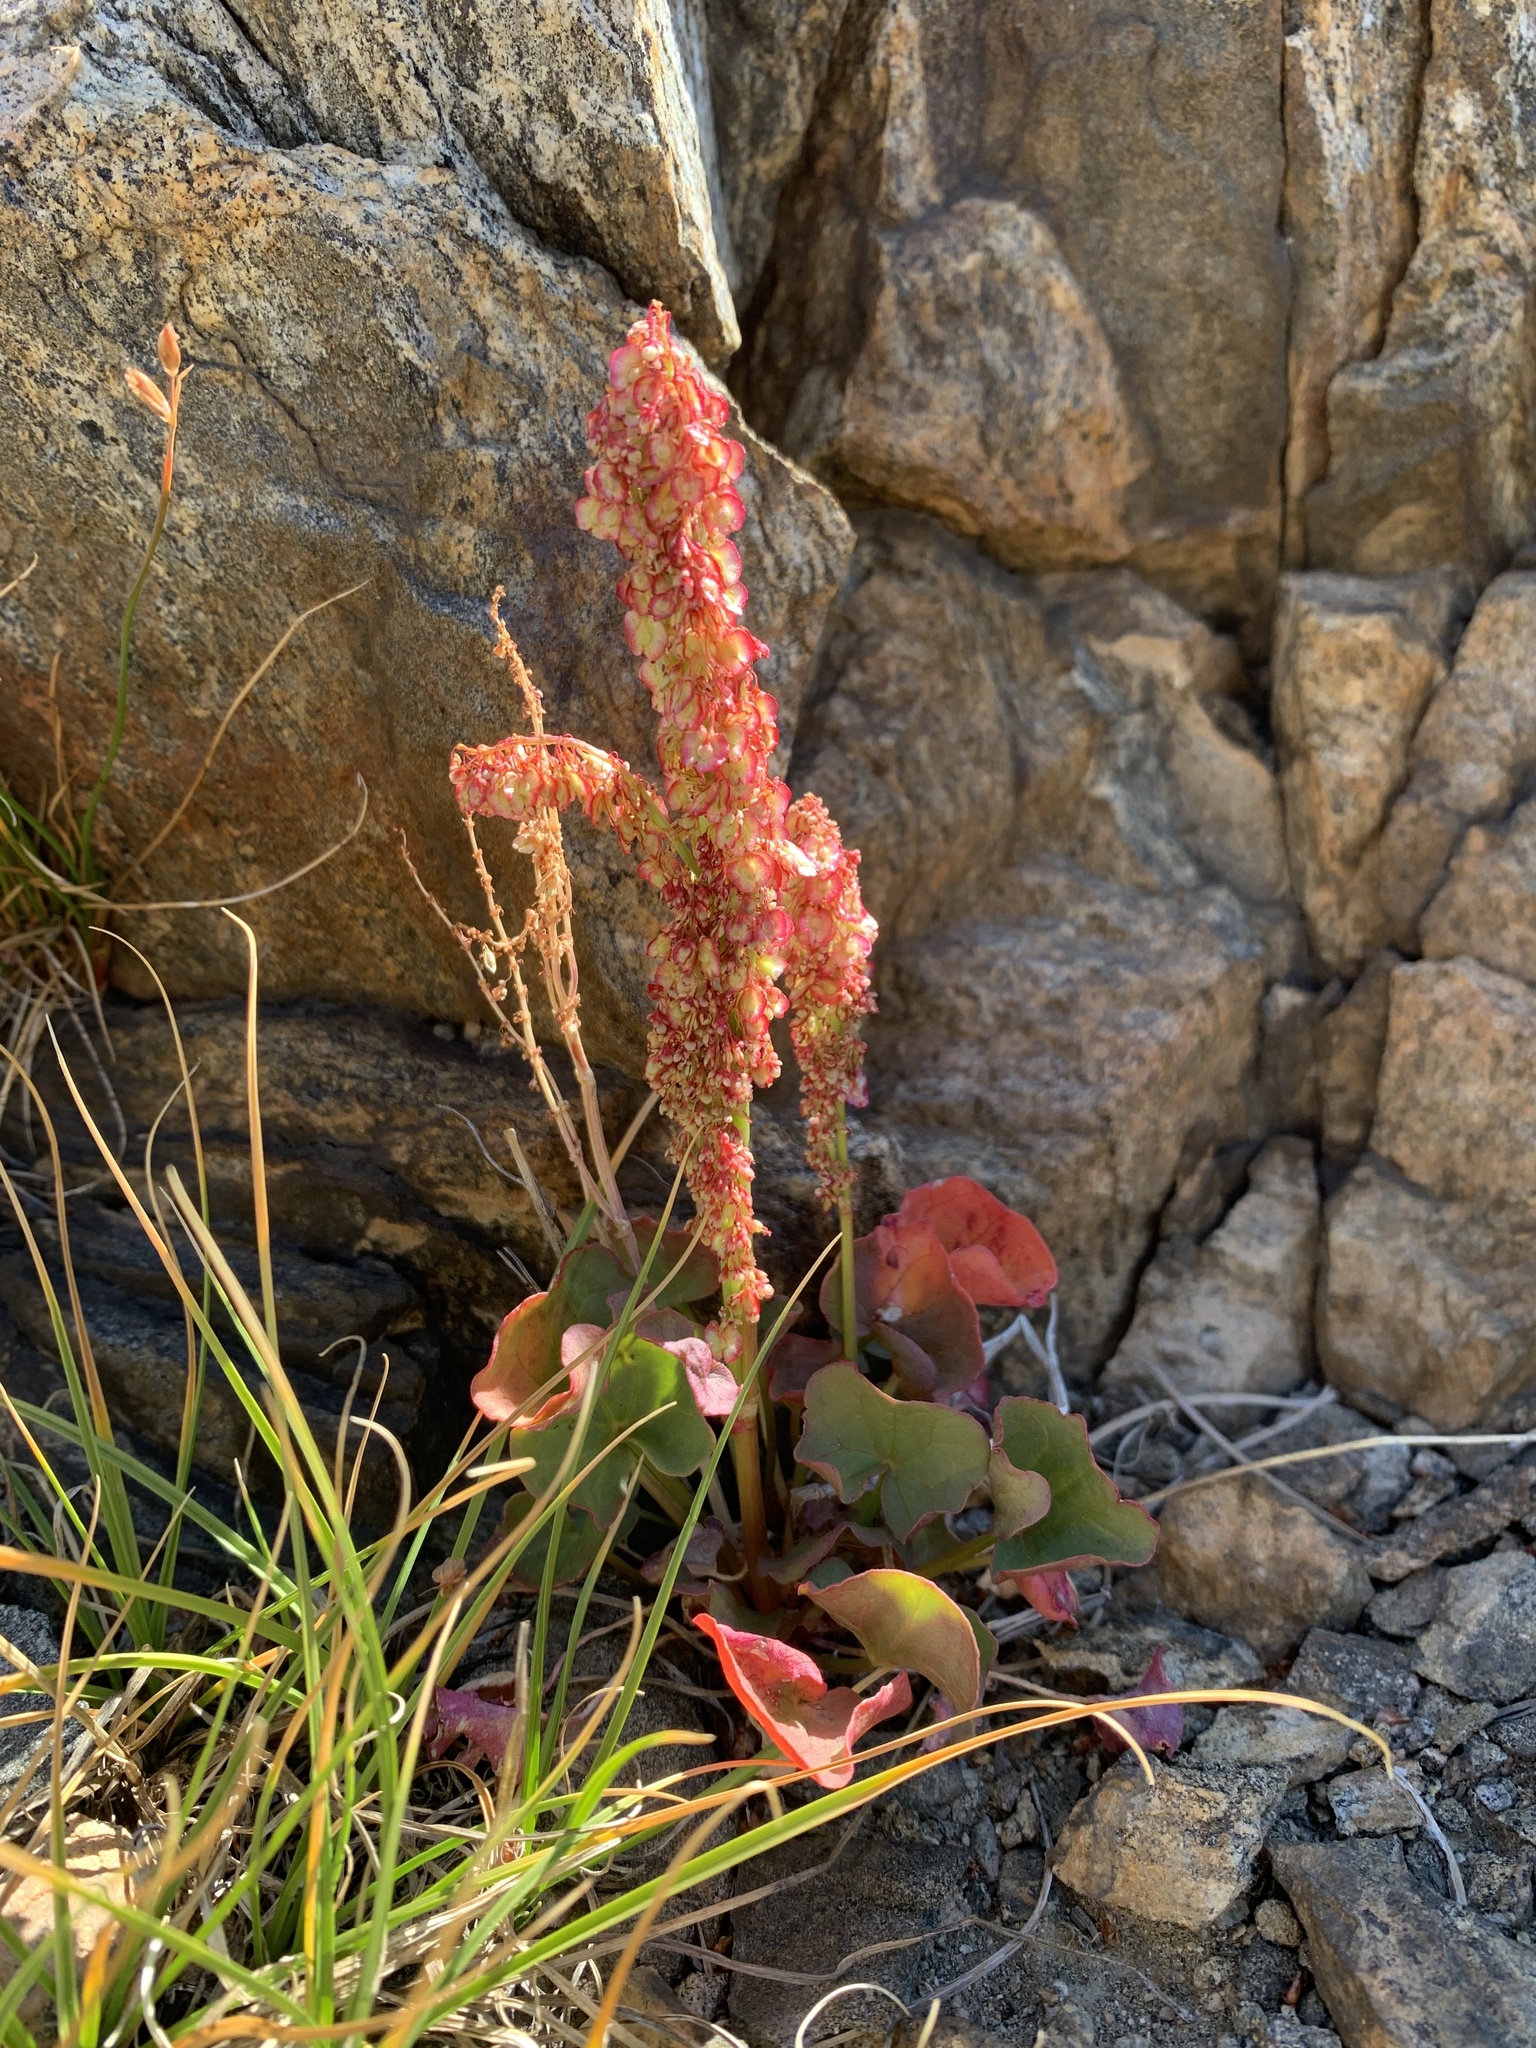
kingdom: Plantae
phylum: Tracheophyta
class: Magnoliopsida
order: Caryophyllales
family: Polygonaceae
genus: Oxyria
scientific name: Oxyria digyna
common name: Alpine mountain-sorrel
